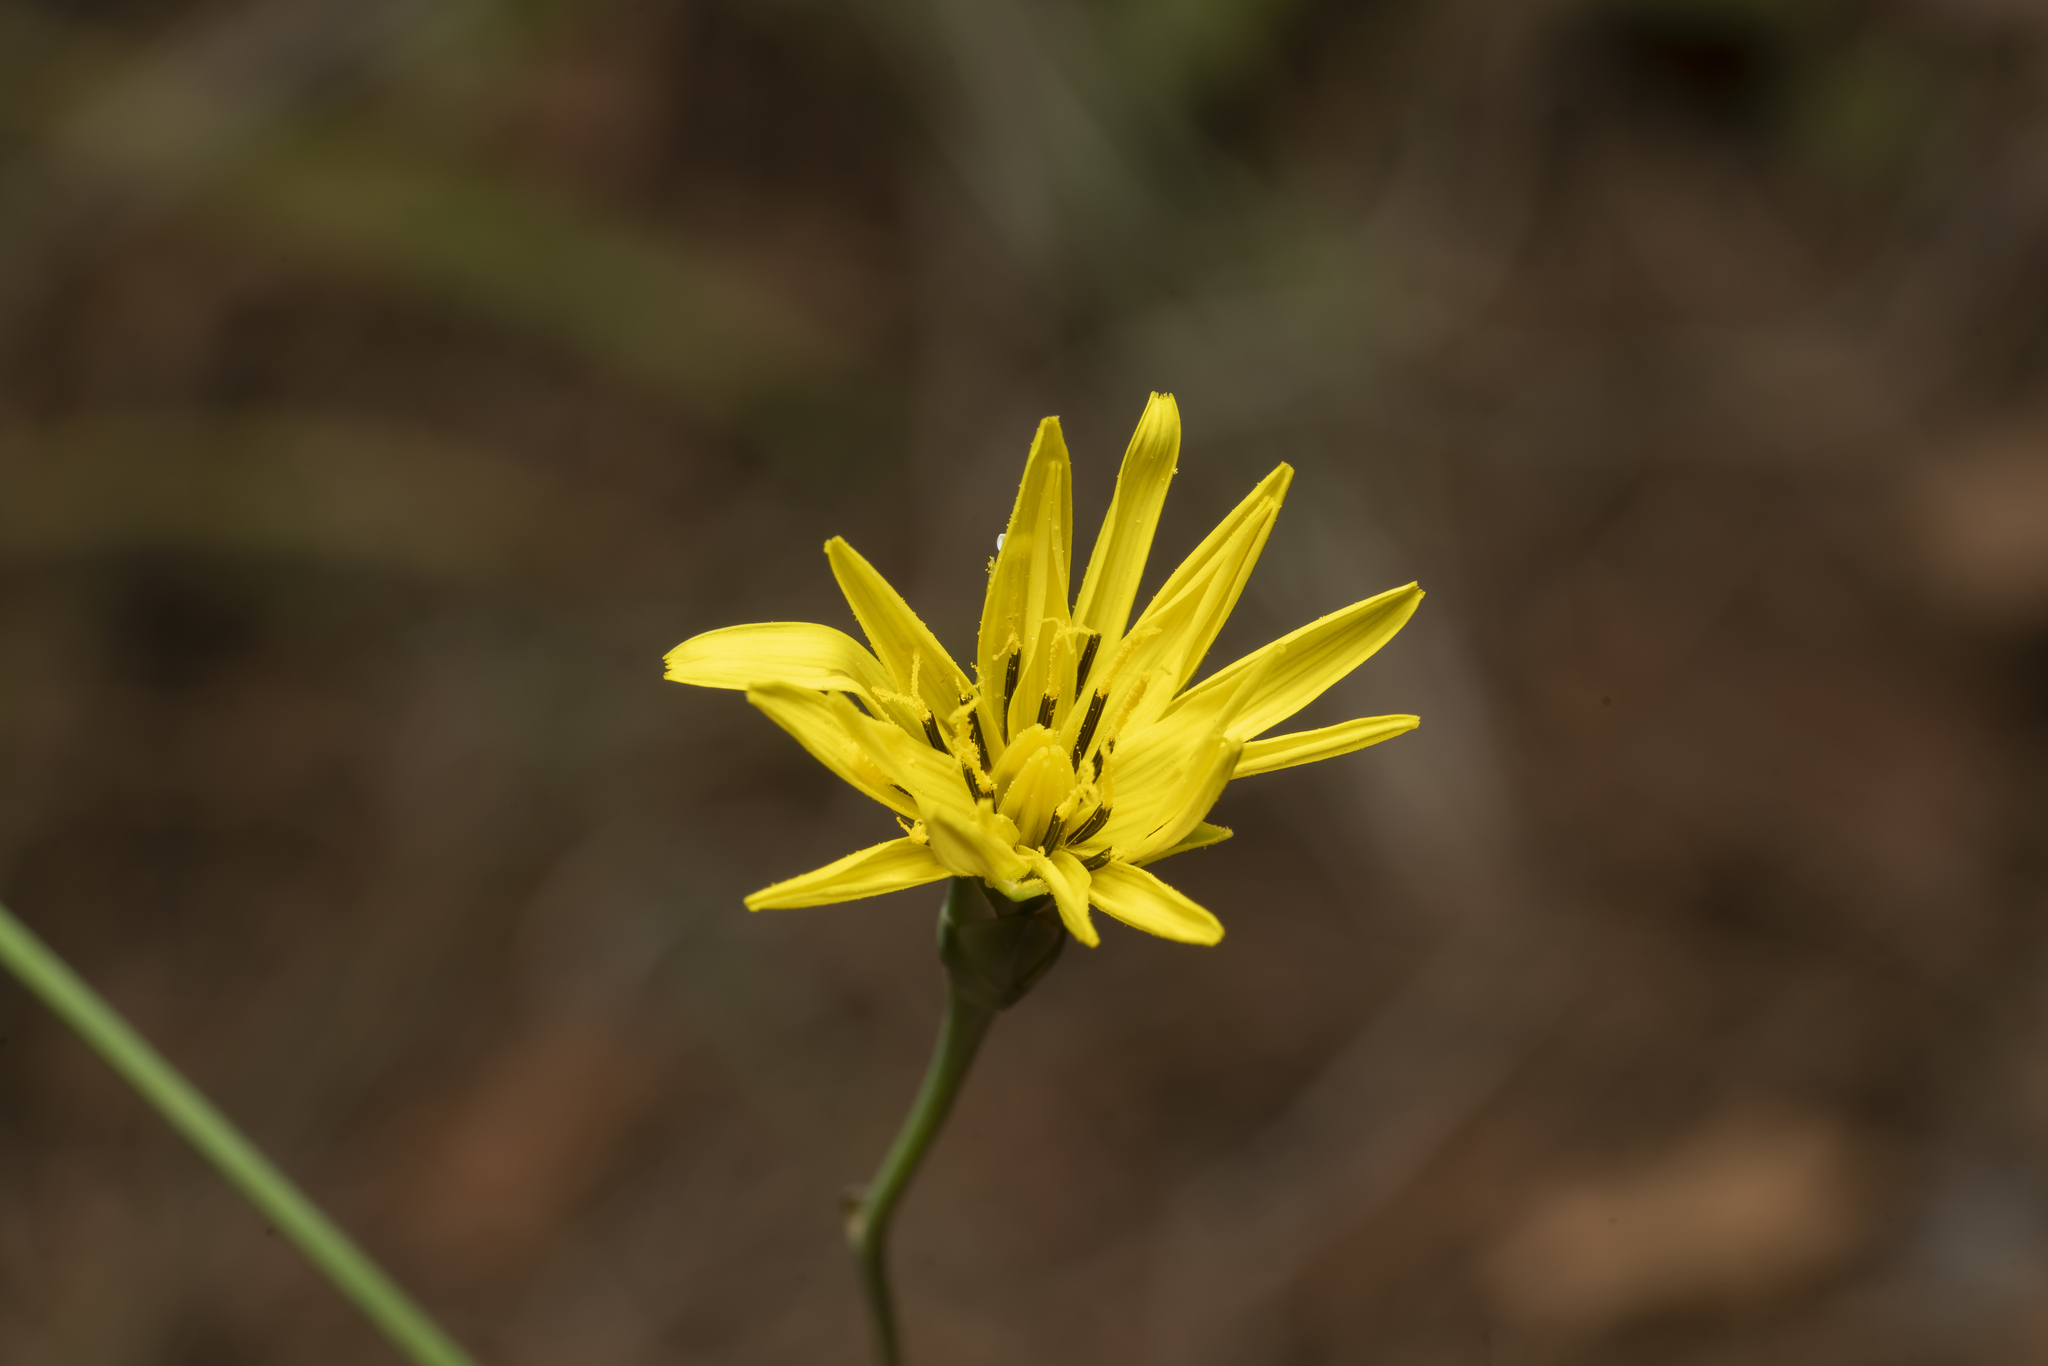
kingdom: Plantae
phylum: Tracheophyta
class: Magnoliopsida
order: Asterales
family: Asteraceae
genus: Candollea
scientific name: Candollea elata
